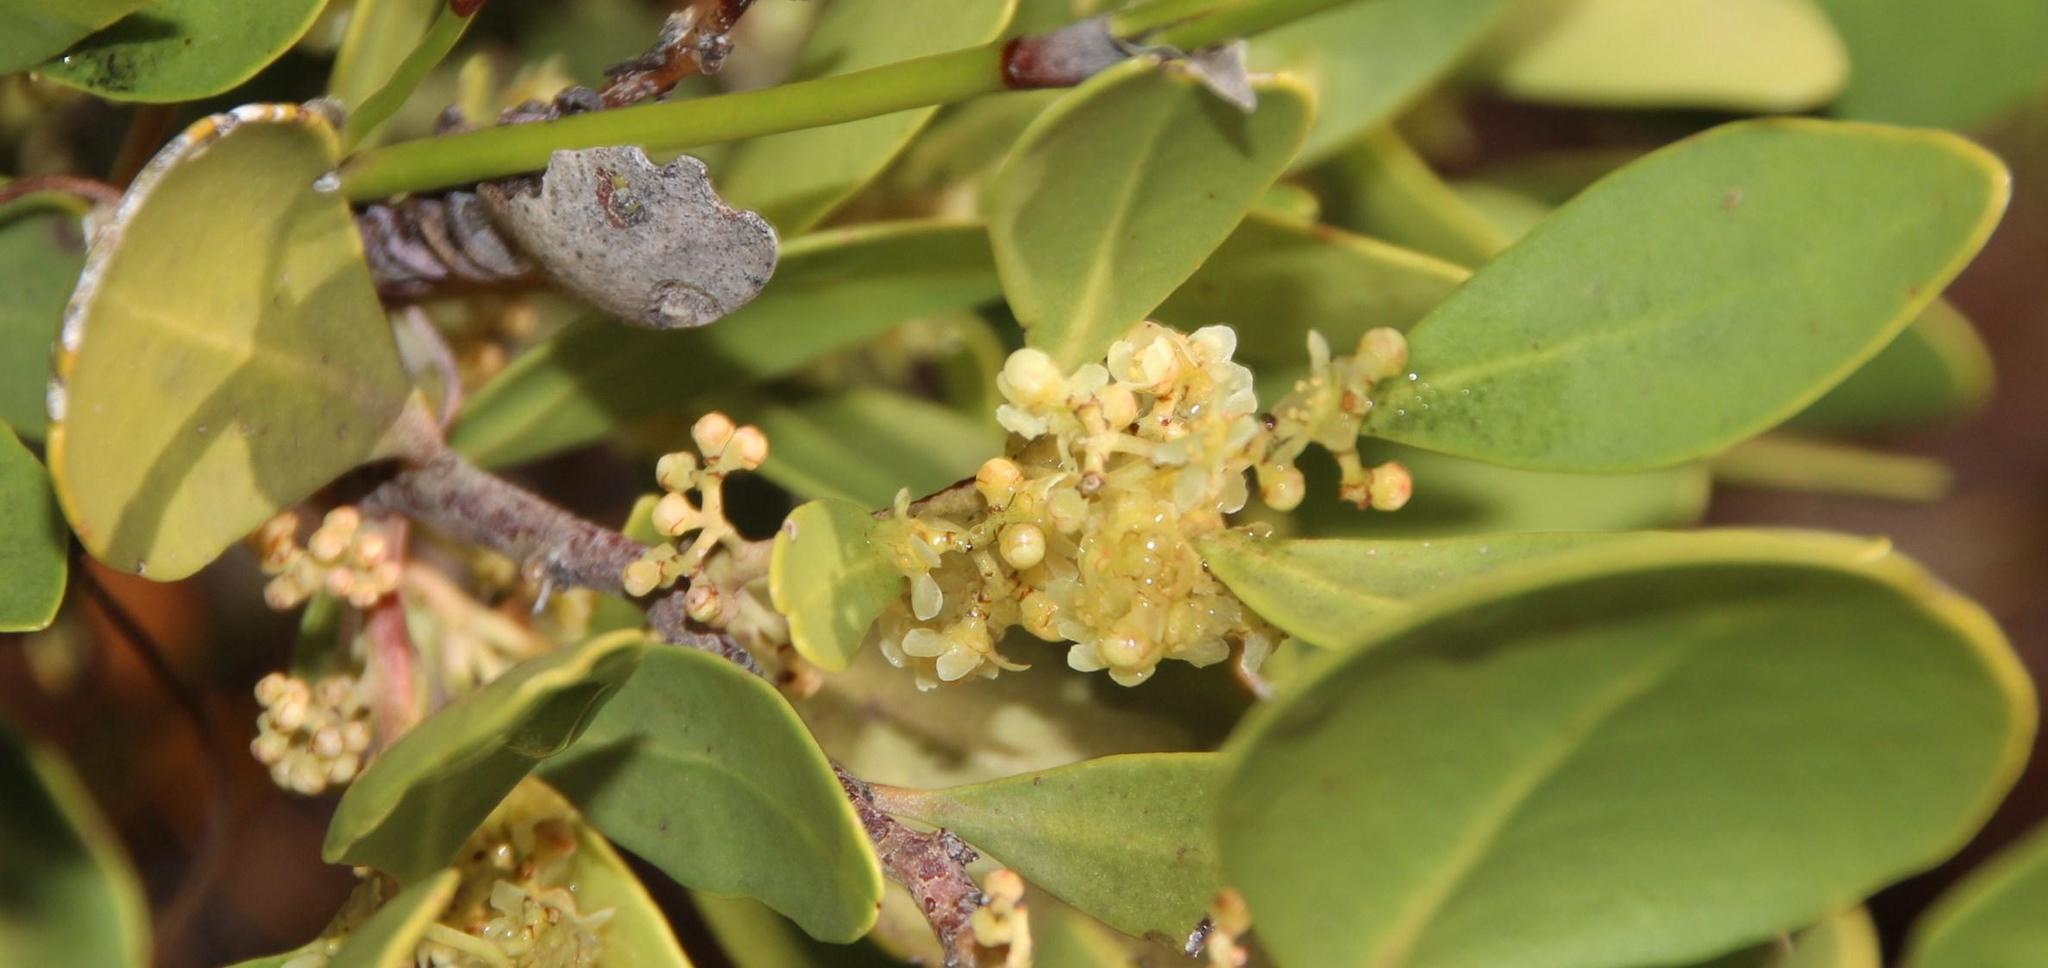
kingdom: Plantae
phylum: Tracheophyta
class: Magnoliopsida
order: Celastrales
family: Celastraceae
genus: Gymnosporia
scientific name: Gymnosporia laurina
